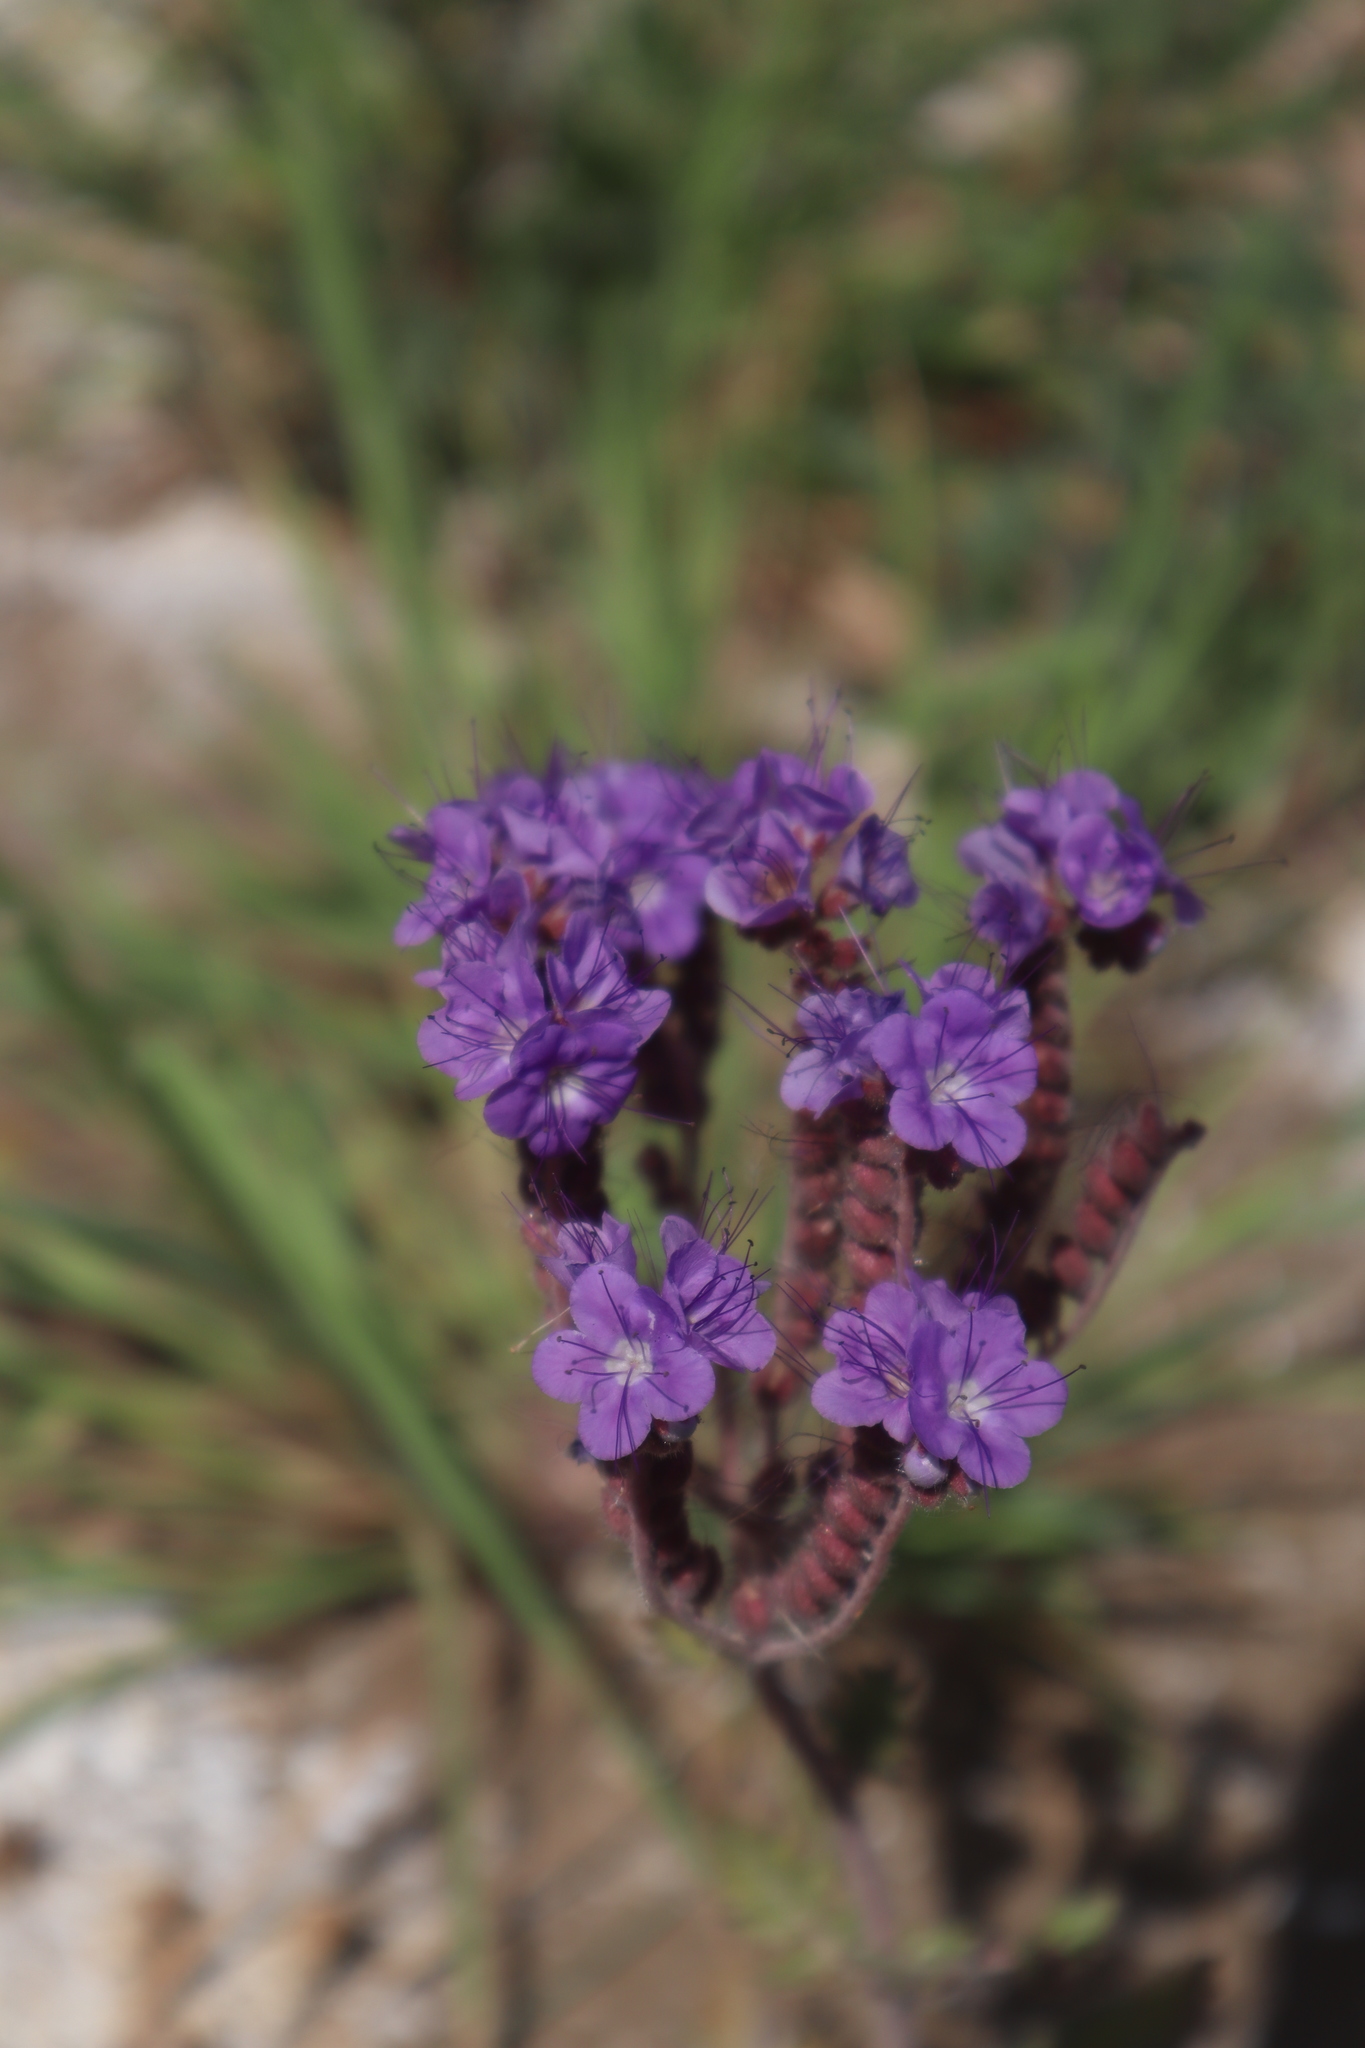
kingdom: Plantae
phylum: Tracheophyta
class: Magnoliopsida
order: Boraginales
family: Hydrophyllaceae
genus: Phacelia
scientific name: Phacelia crenulata
